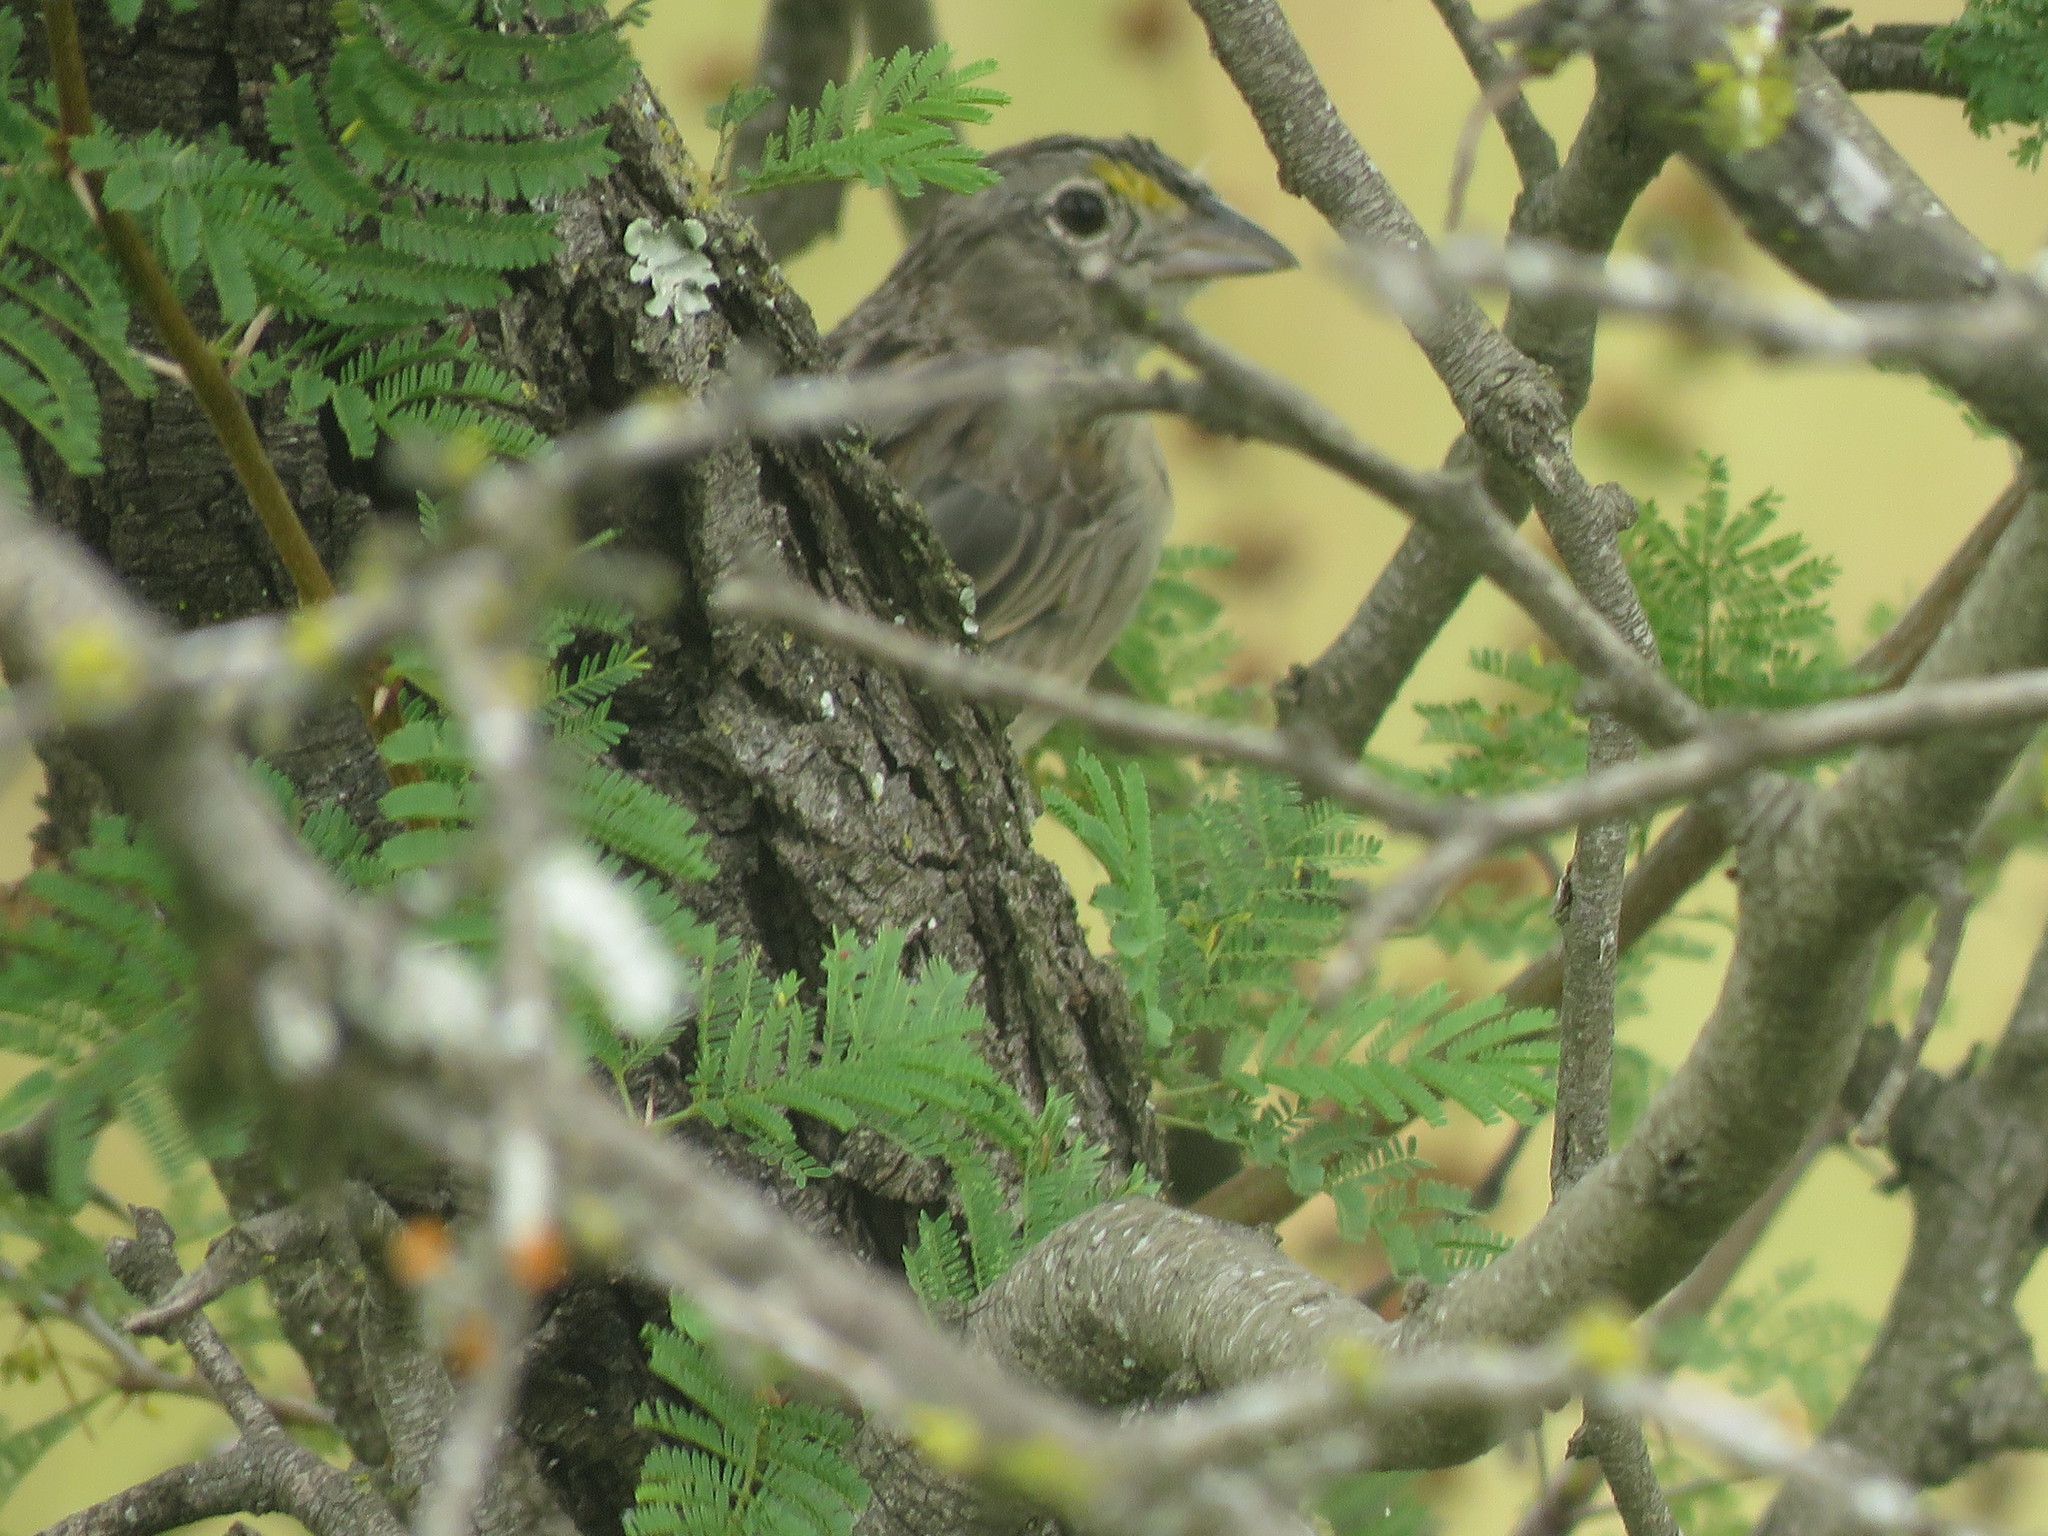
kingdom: Animalia
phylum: Chordata
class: Aves
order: Passeriformes
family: Passerellidae
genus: Ammodramus
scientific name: Ammodramus humeralis
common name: Grassland sparrow
